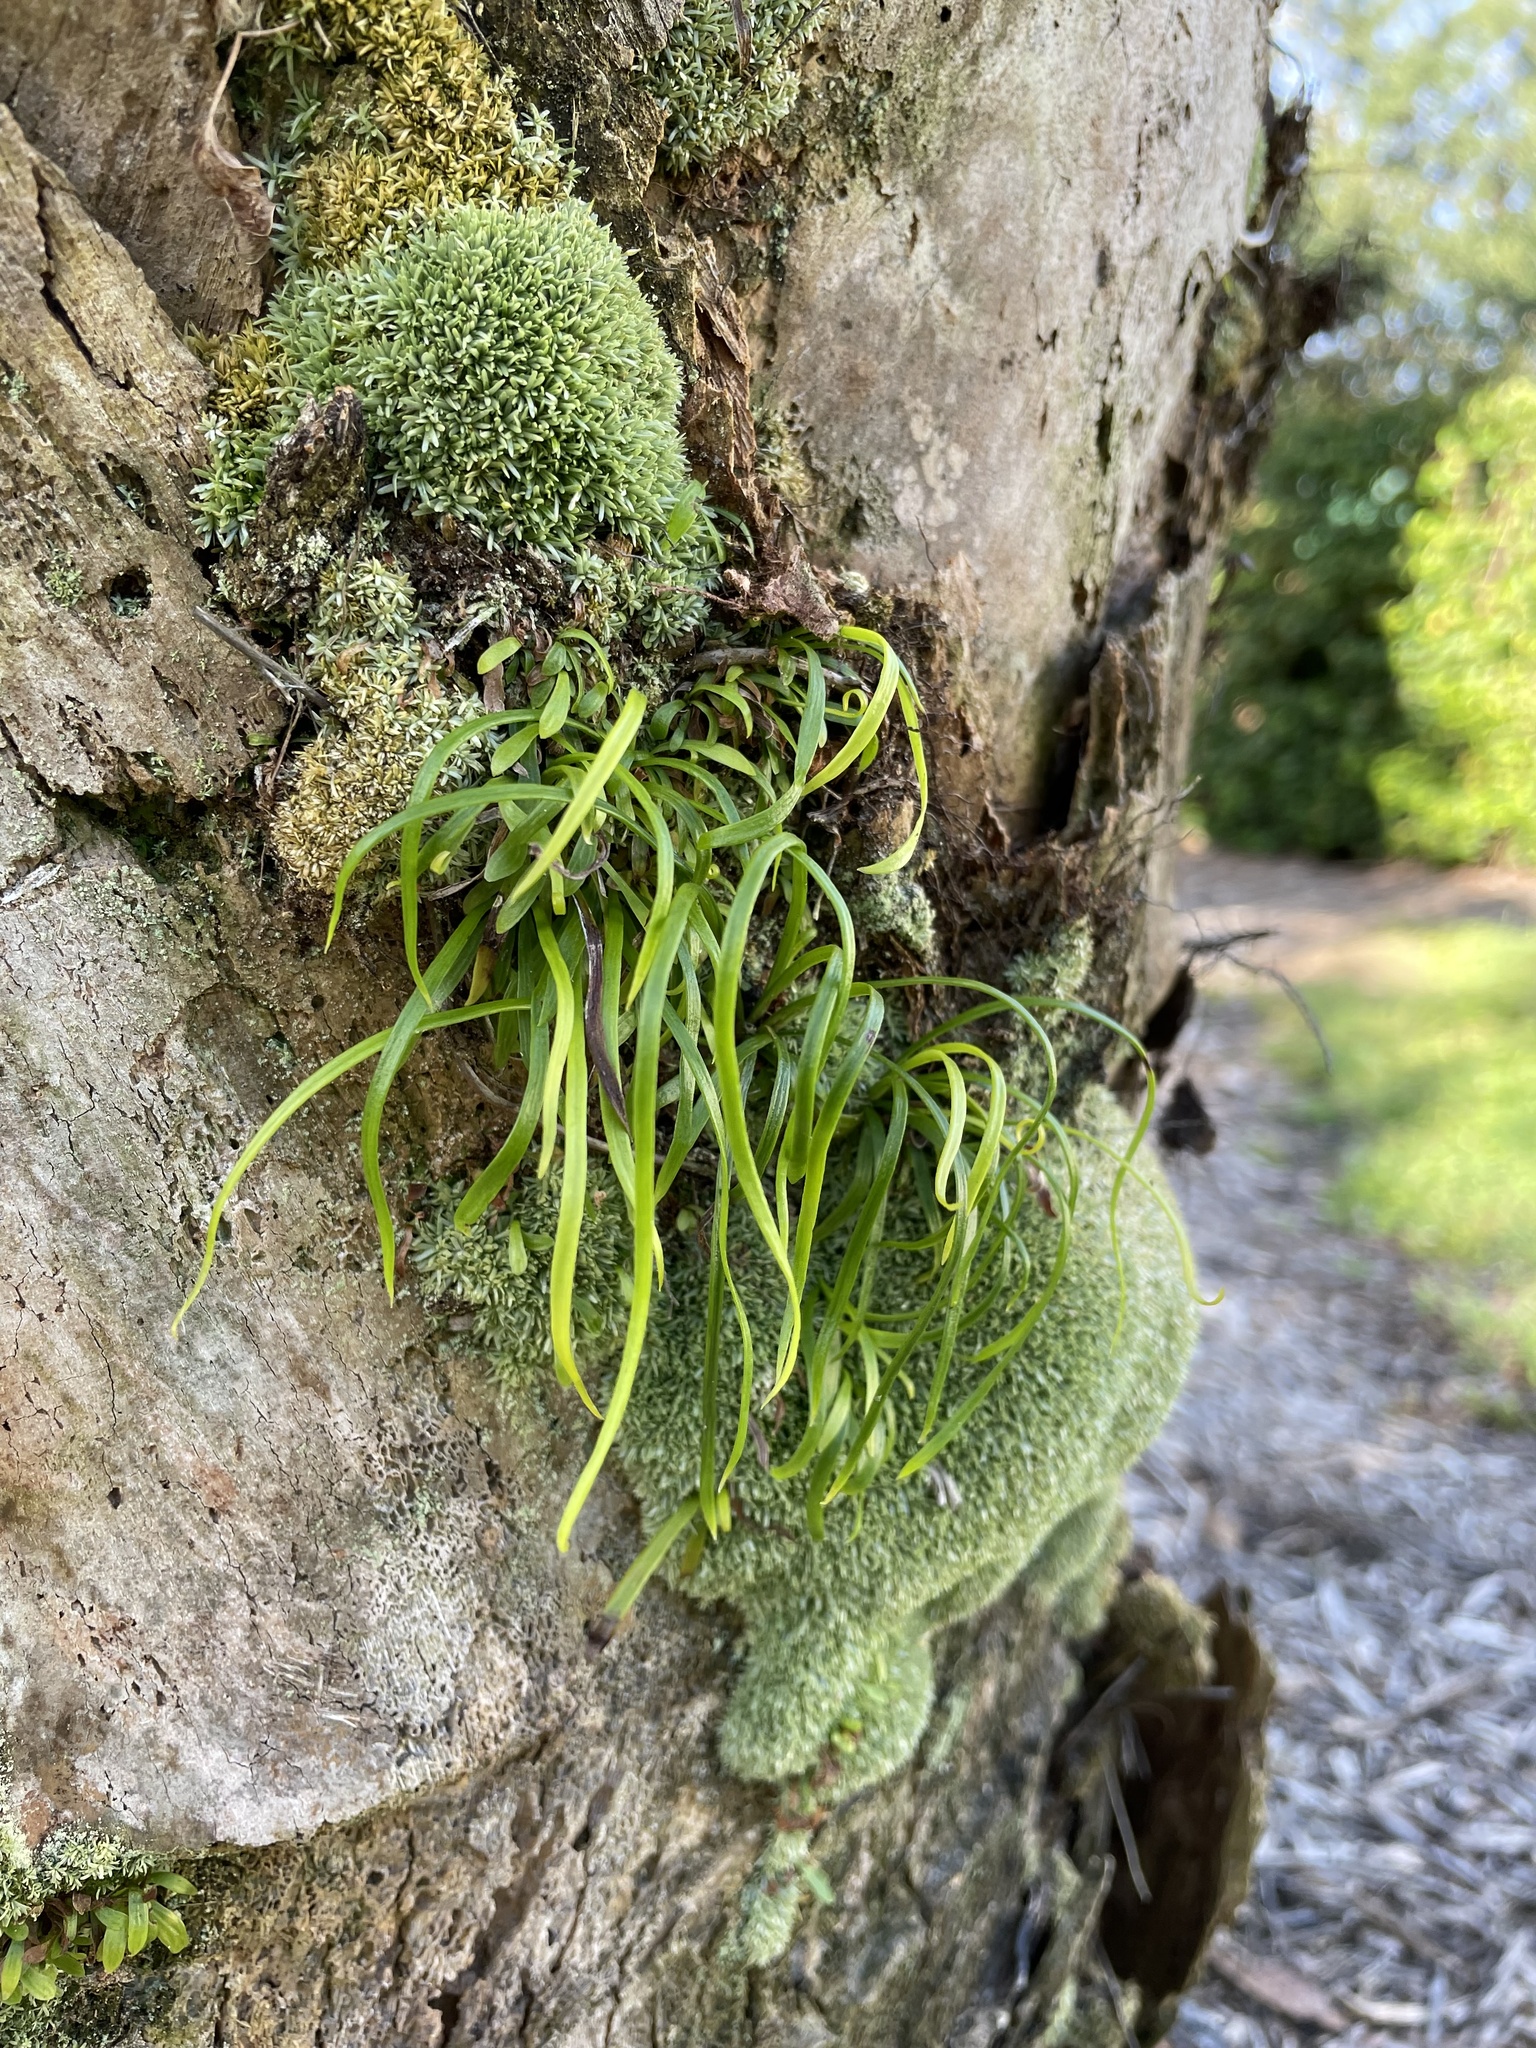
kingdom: Plantae
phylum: Tracheophyta
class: Polypodiopsida
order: Polypodiales
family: Pteridaceae
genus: Vittaria
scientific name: Vittaria lineata
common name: Shoestring fern
